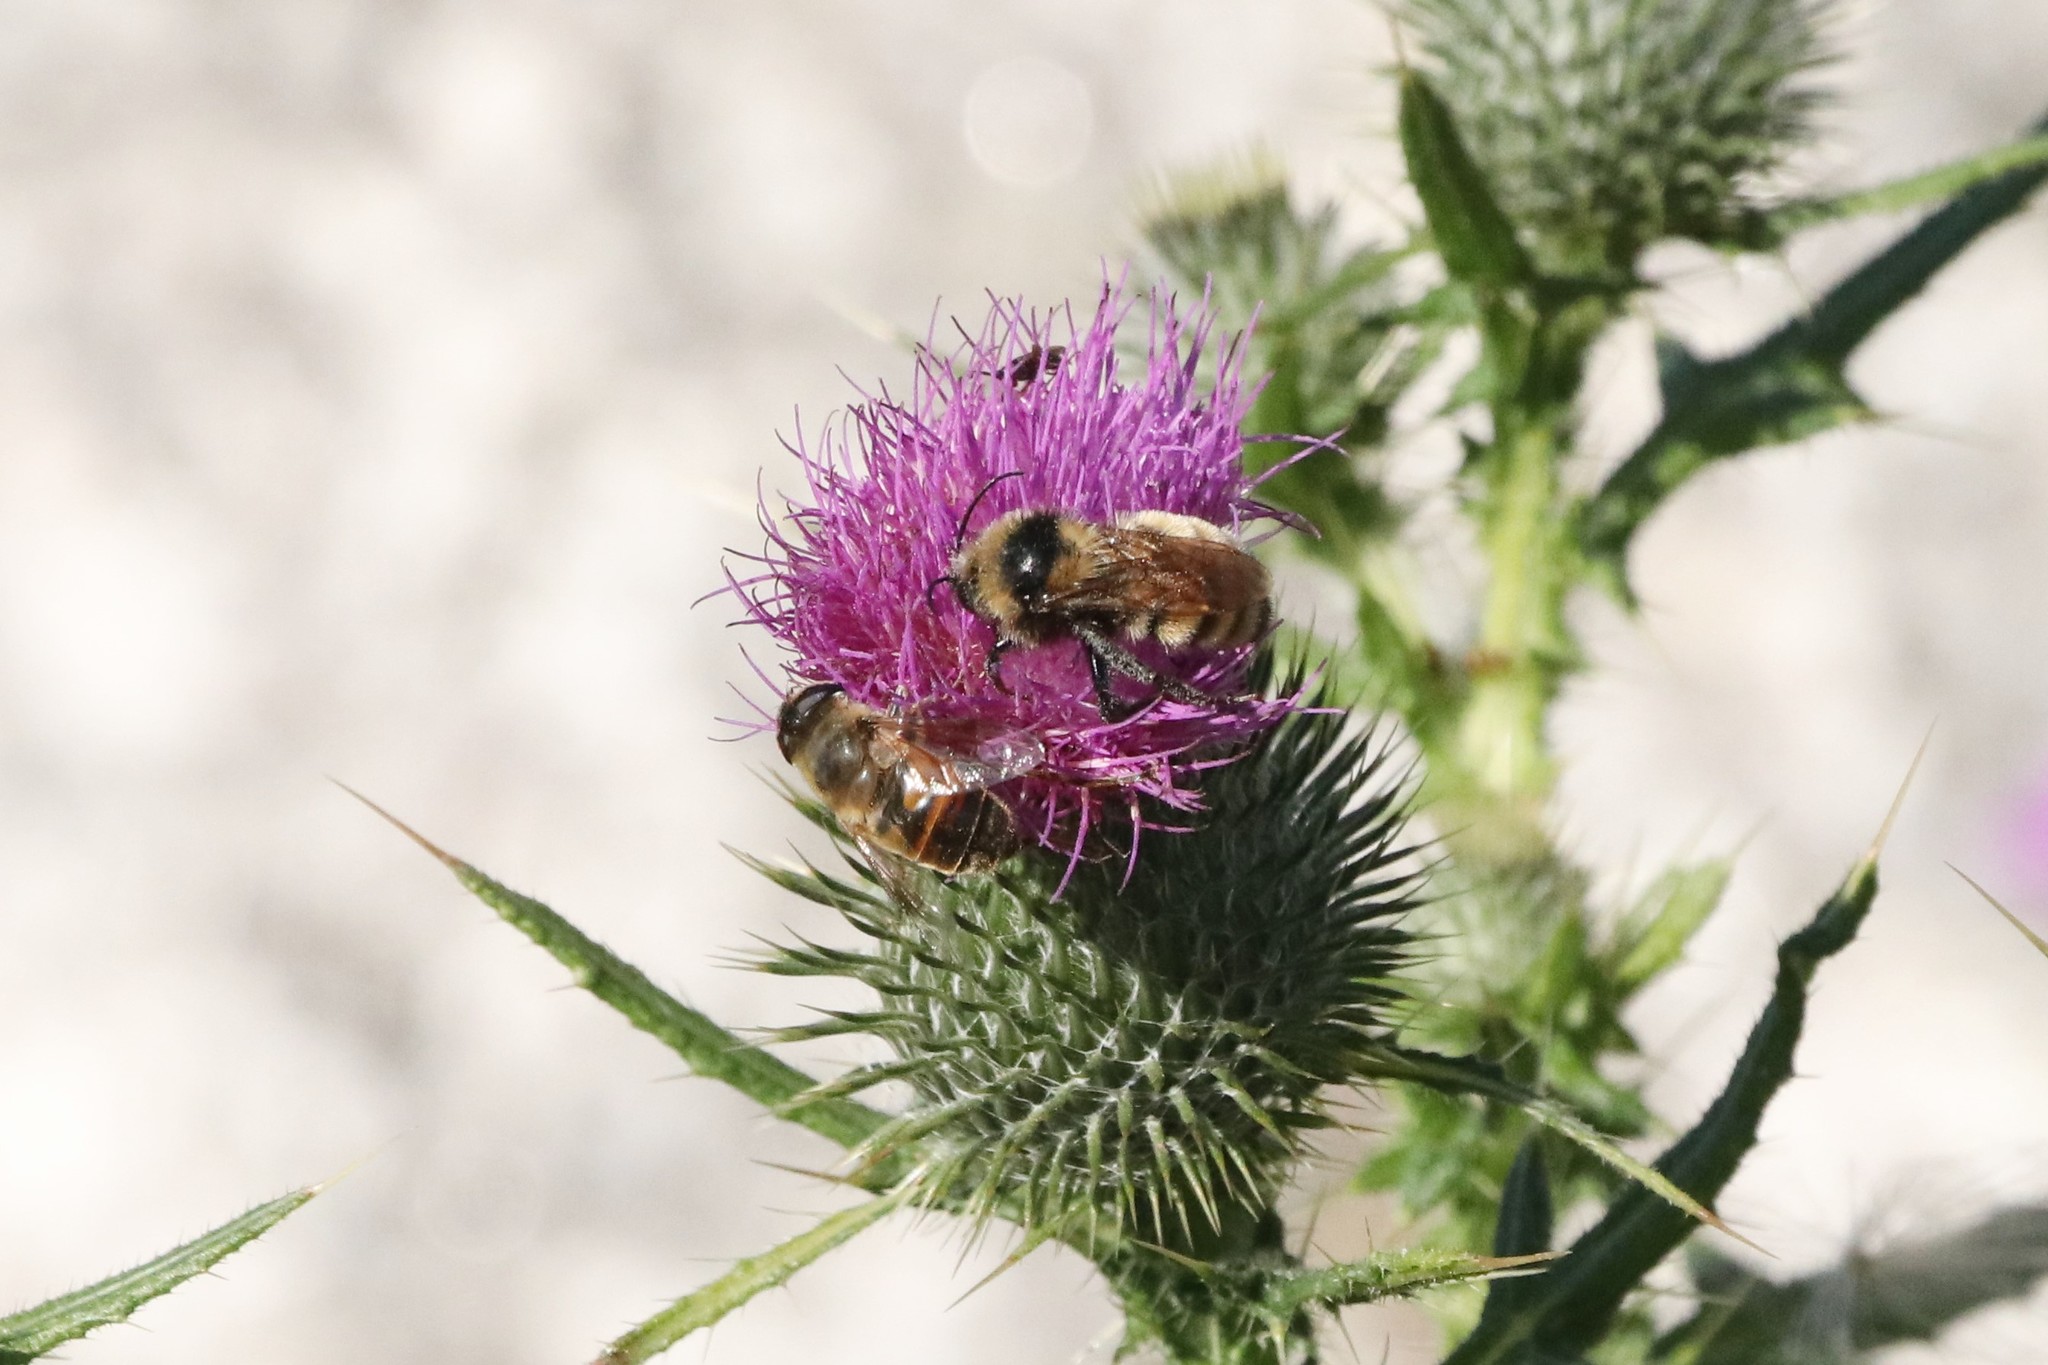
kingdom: Animalia
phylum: Arthropoda
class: Insecta
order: Hymenoptera
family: Apidae
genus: Bombus
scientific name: Bombus borealis
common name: Northern amber bumble bee
